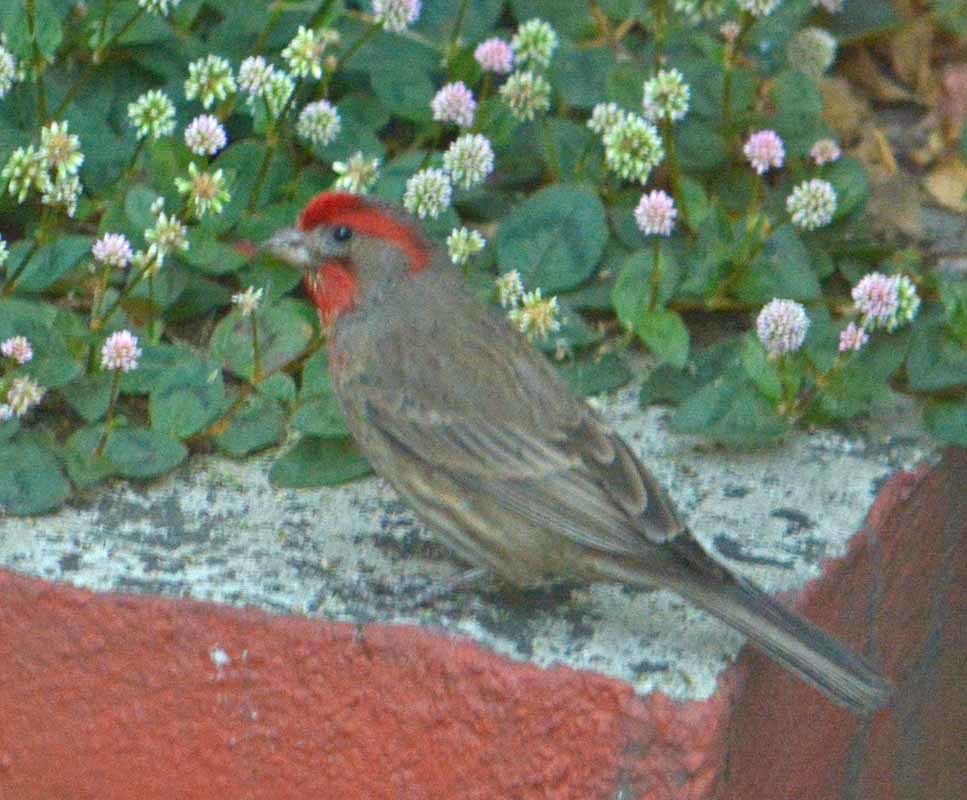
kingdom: Animalia
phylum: Chordata
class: Aves
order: Passeriformes
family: Fringillidae
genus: Haemorhous
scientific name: Haemorhous mexicanus
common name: House finch
